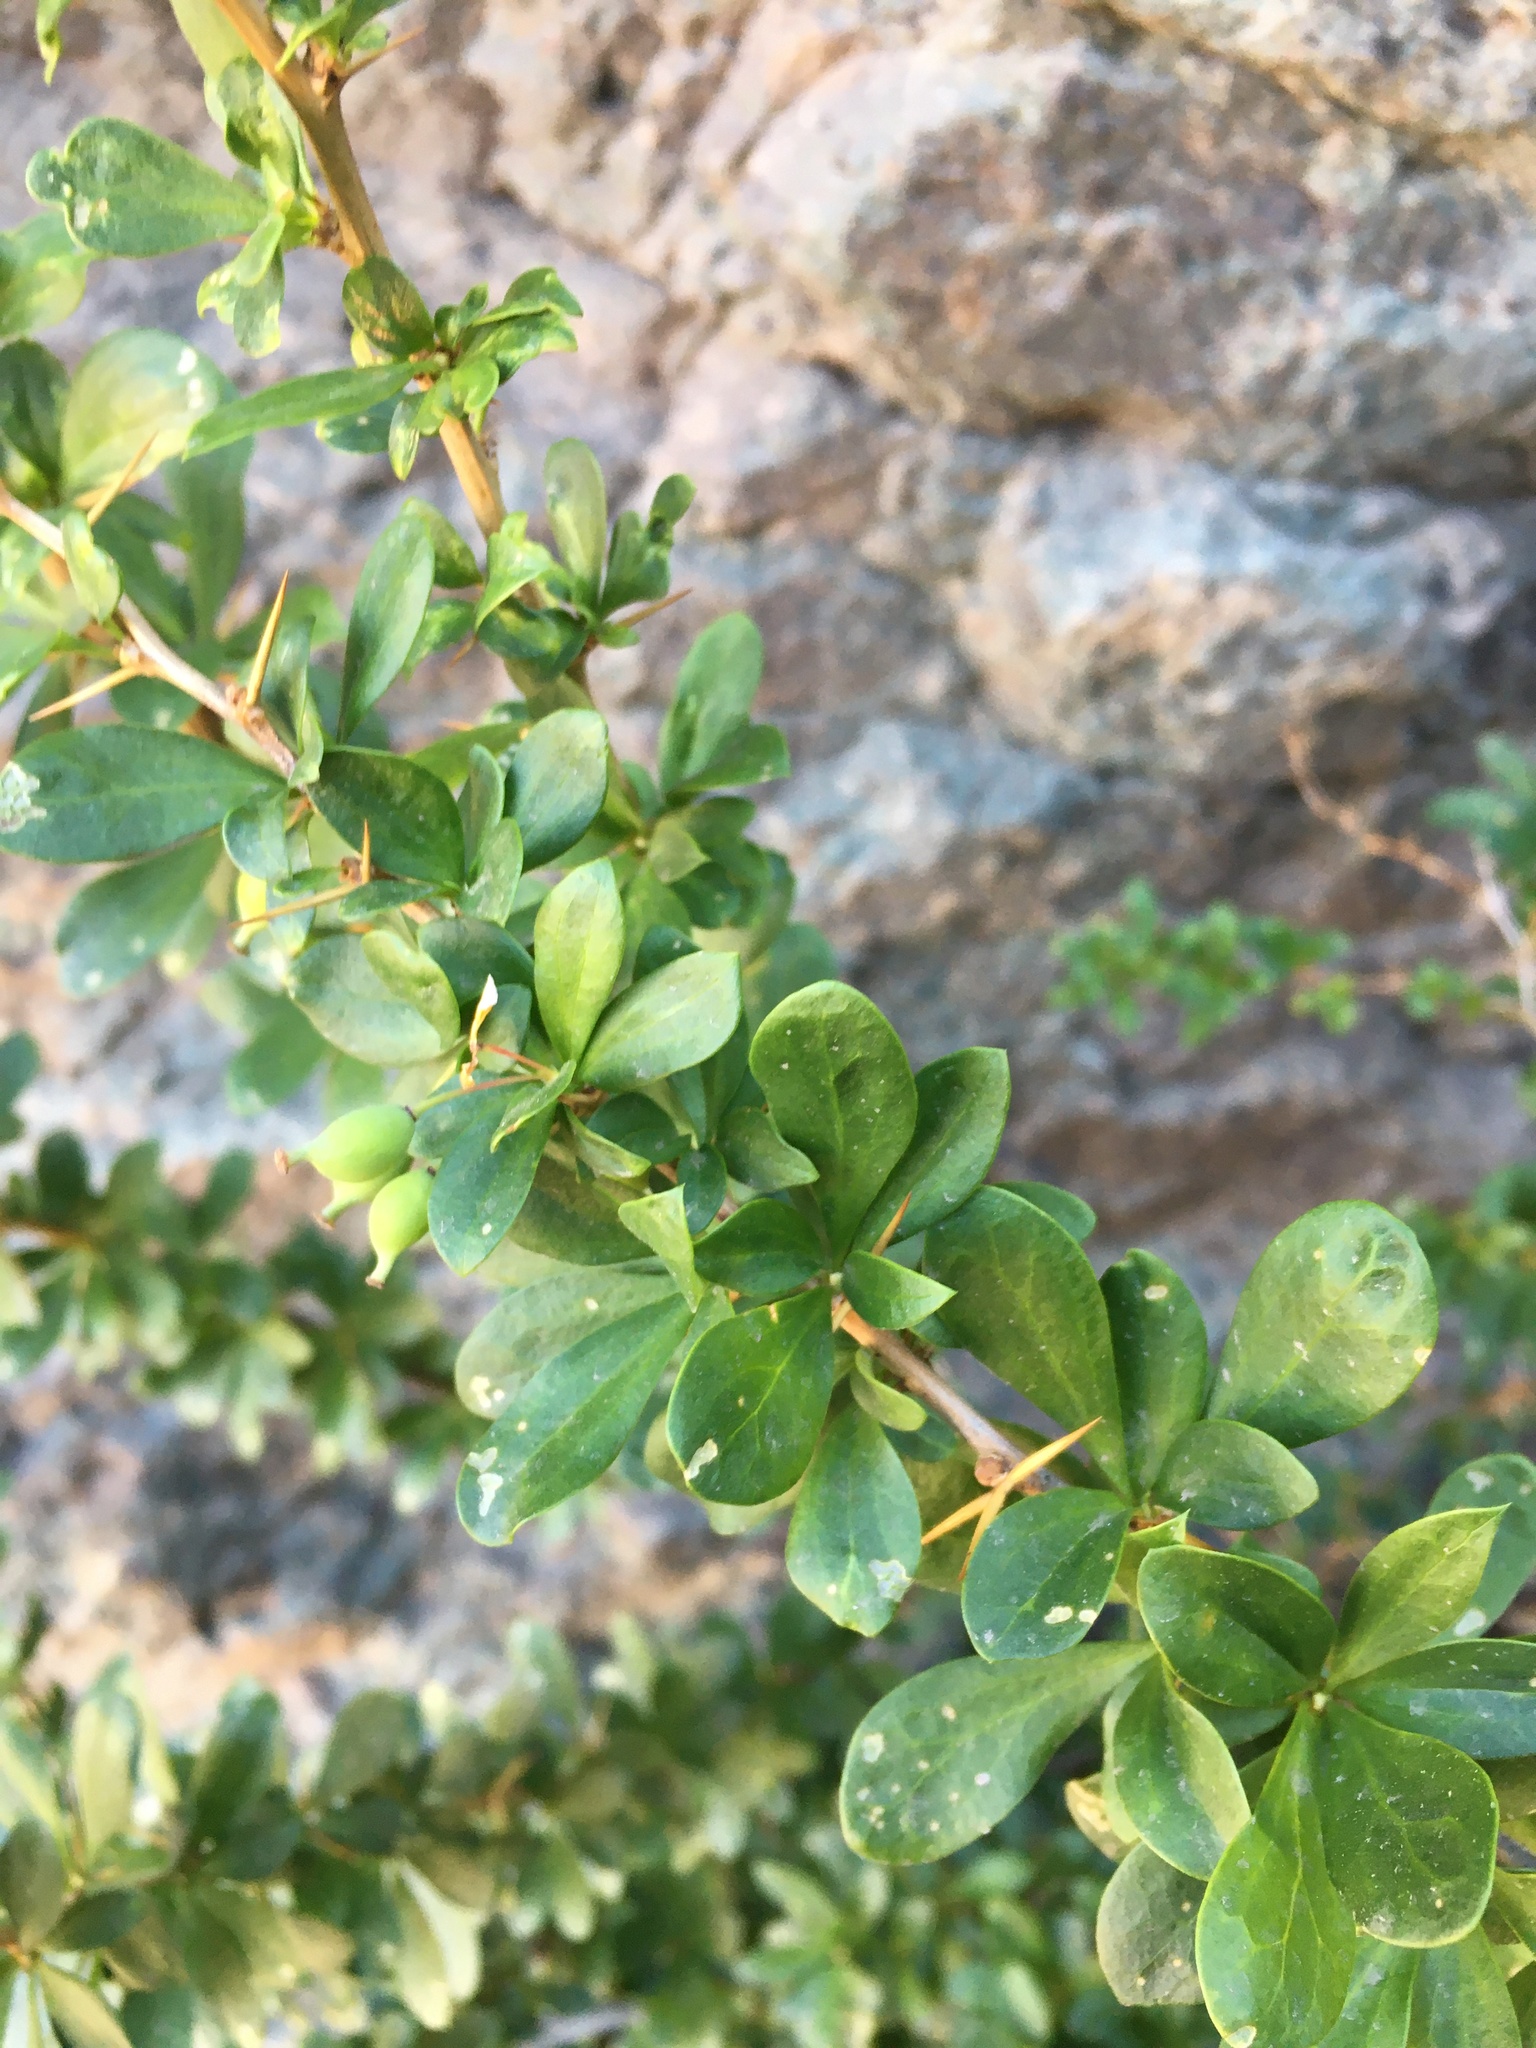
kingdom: Plantae
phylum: Tracheophyta
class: Magnoliopsida
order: Ranunculales
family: Berberidaceae
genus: Berberis
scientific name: Berberis montana
